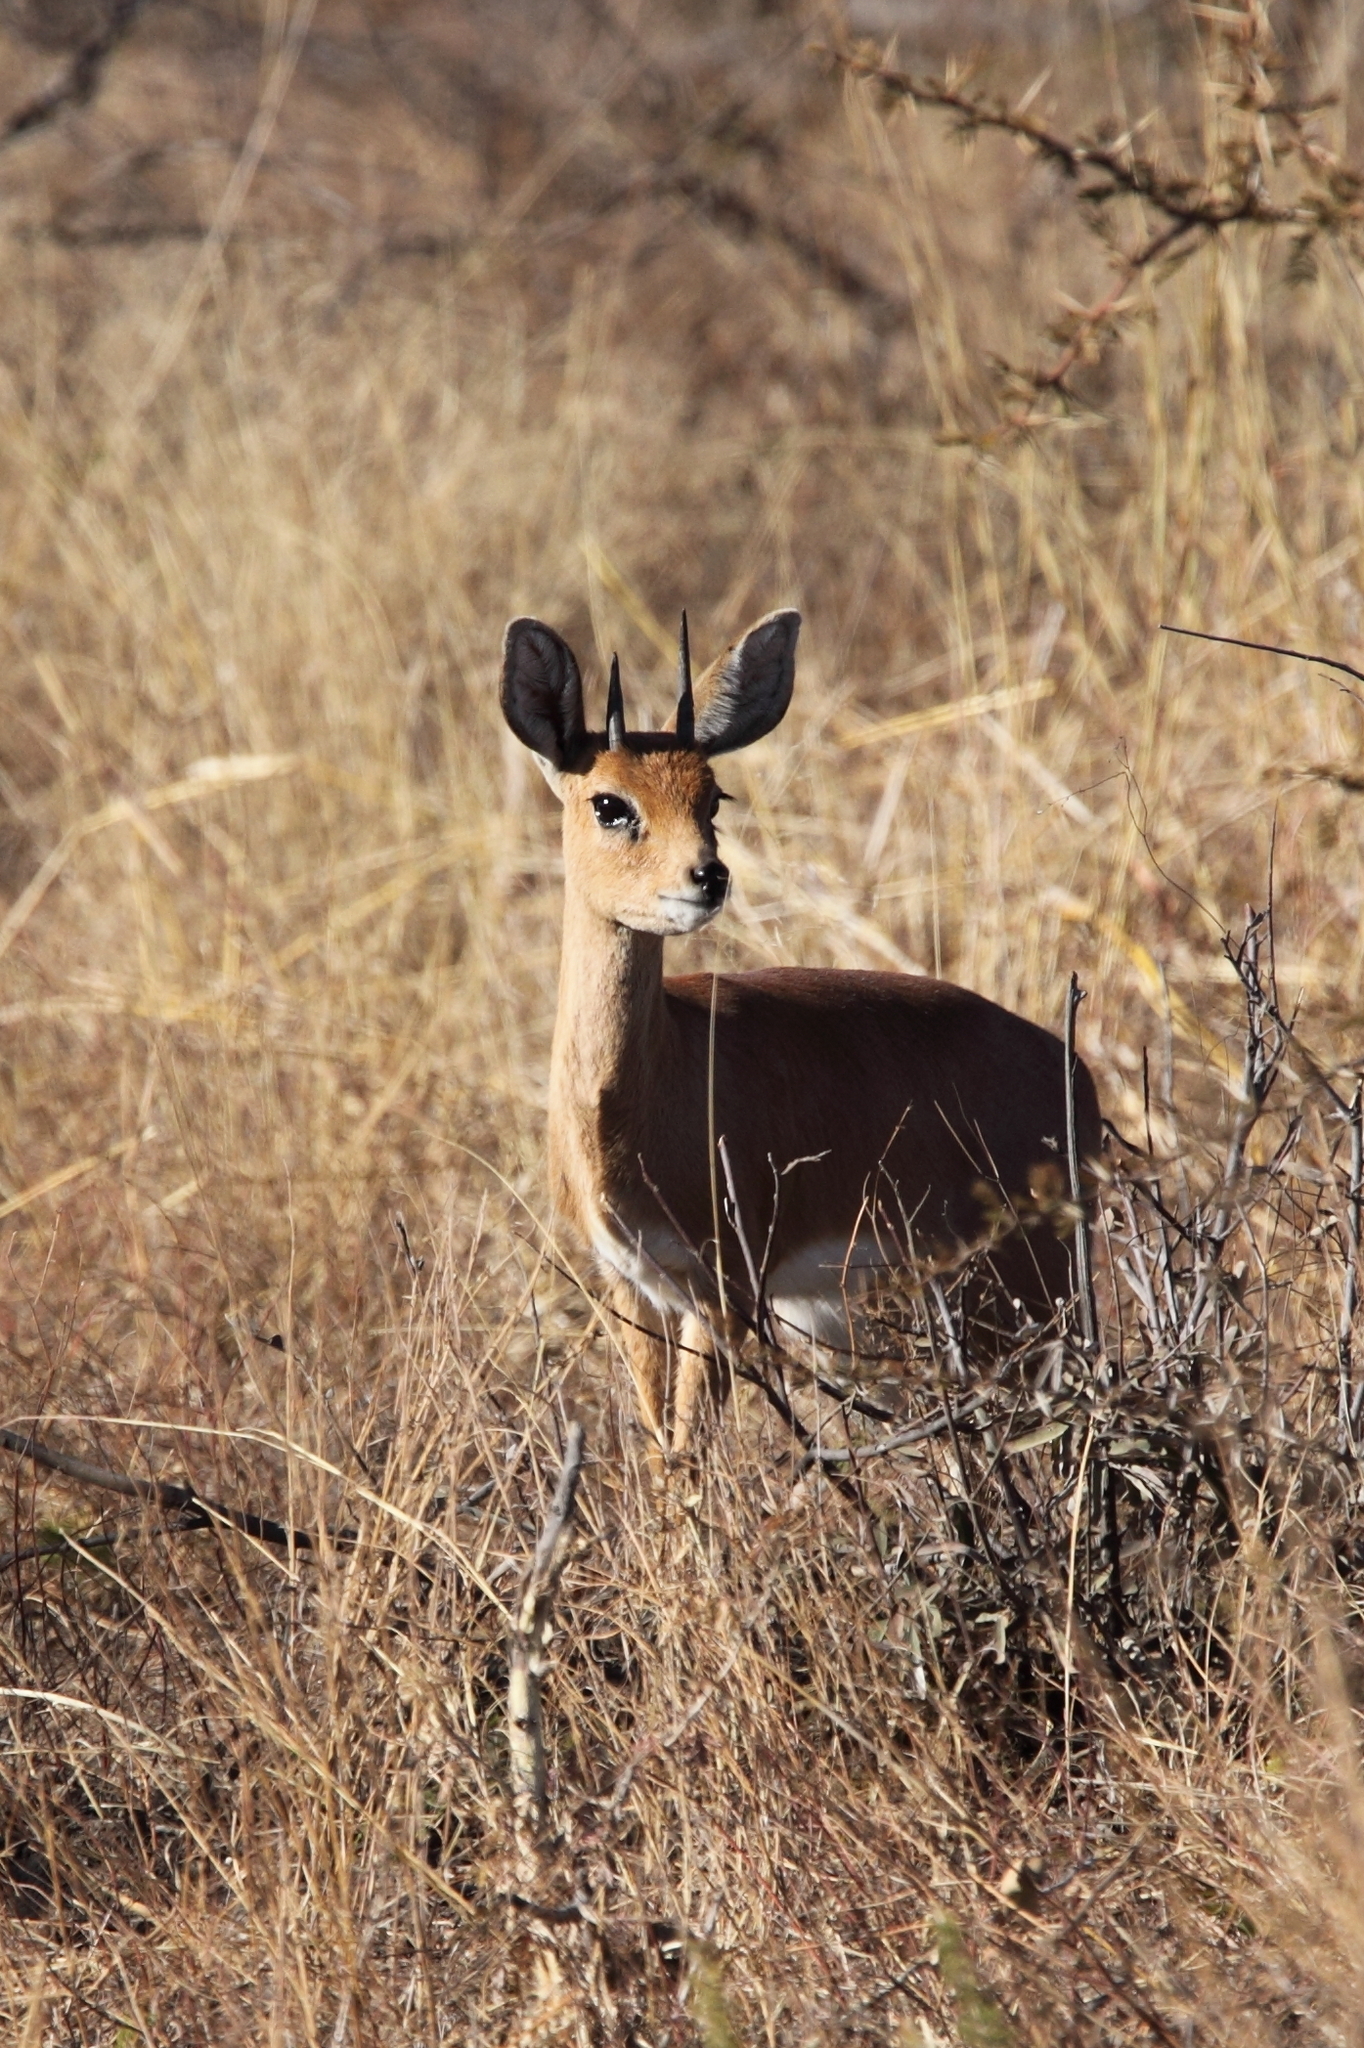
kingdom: Animalia
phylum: Chordata
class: Mammalia
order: Artiodactyla
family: Bovidae
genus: Raphicerus
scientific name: Raphicerus campestris
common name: Steenbok
